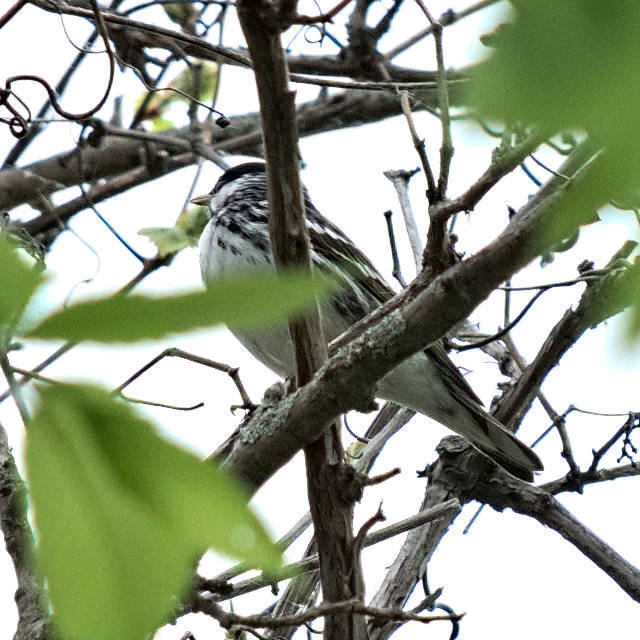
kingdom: Animalia
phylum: Chordata
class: Aves
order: Passeriformes
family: Parulidae
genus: Setophaga
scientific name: Setophaga striata
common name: Blackpoll warbler
